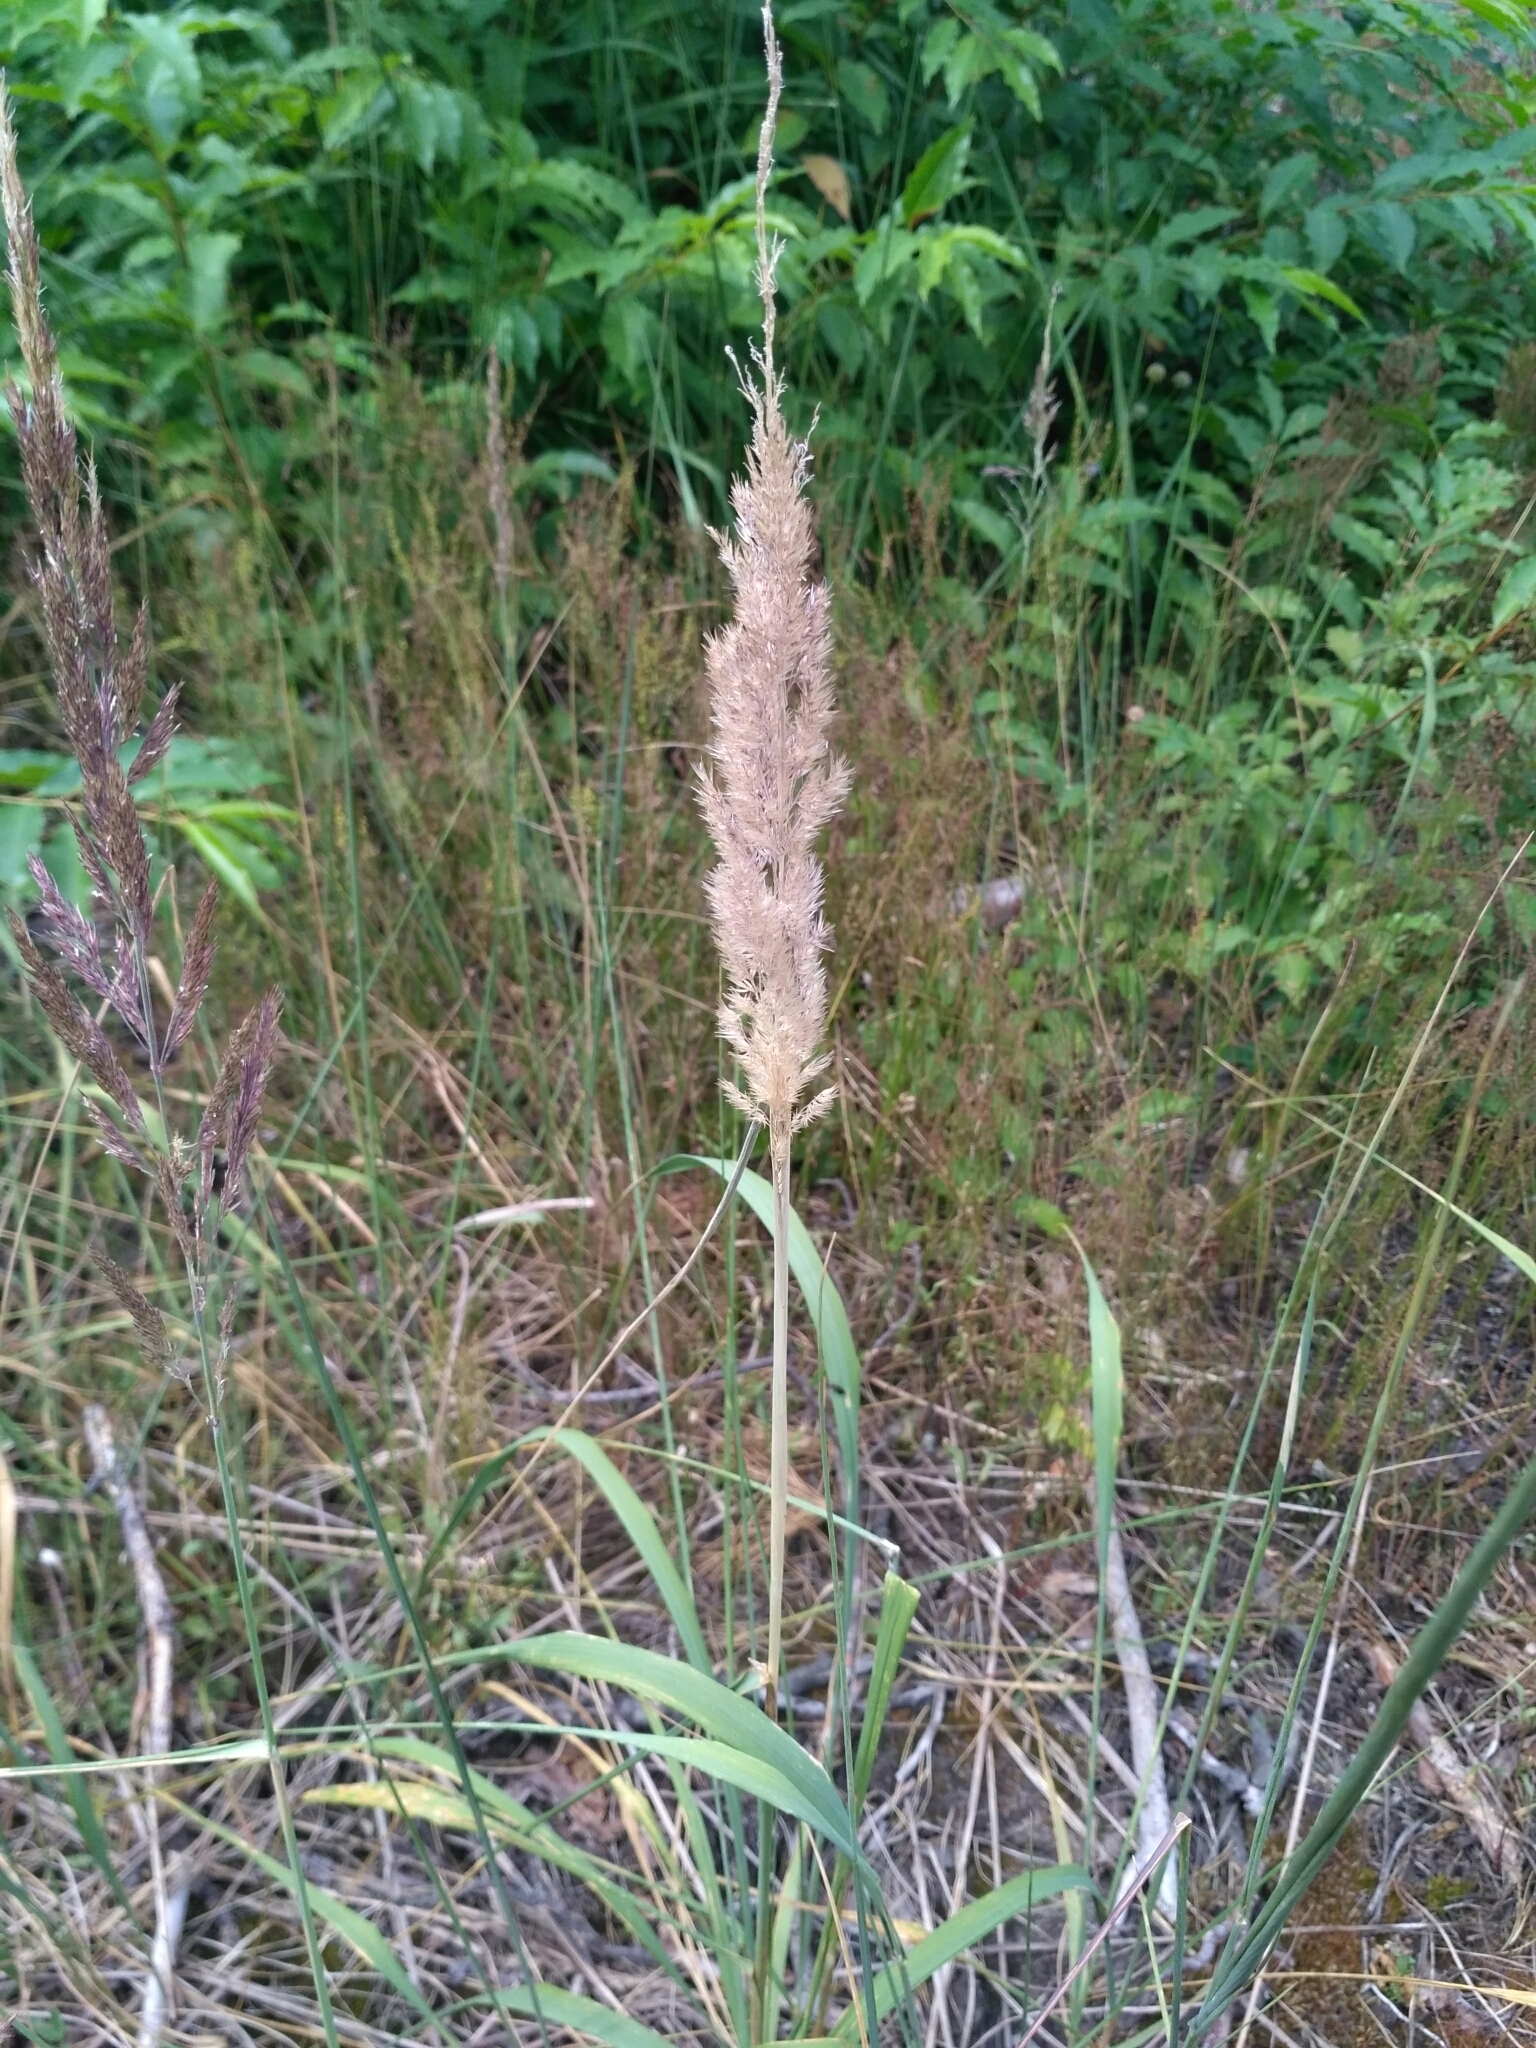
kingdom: Plantae
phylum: Tracheophyta
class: Liliopsida
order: Poales
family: Poaceae
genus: Calamagrostis
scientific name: Calamagrostis epigejos
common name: Wood small-reed
